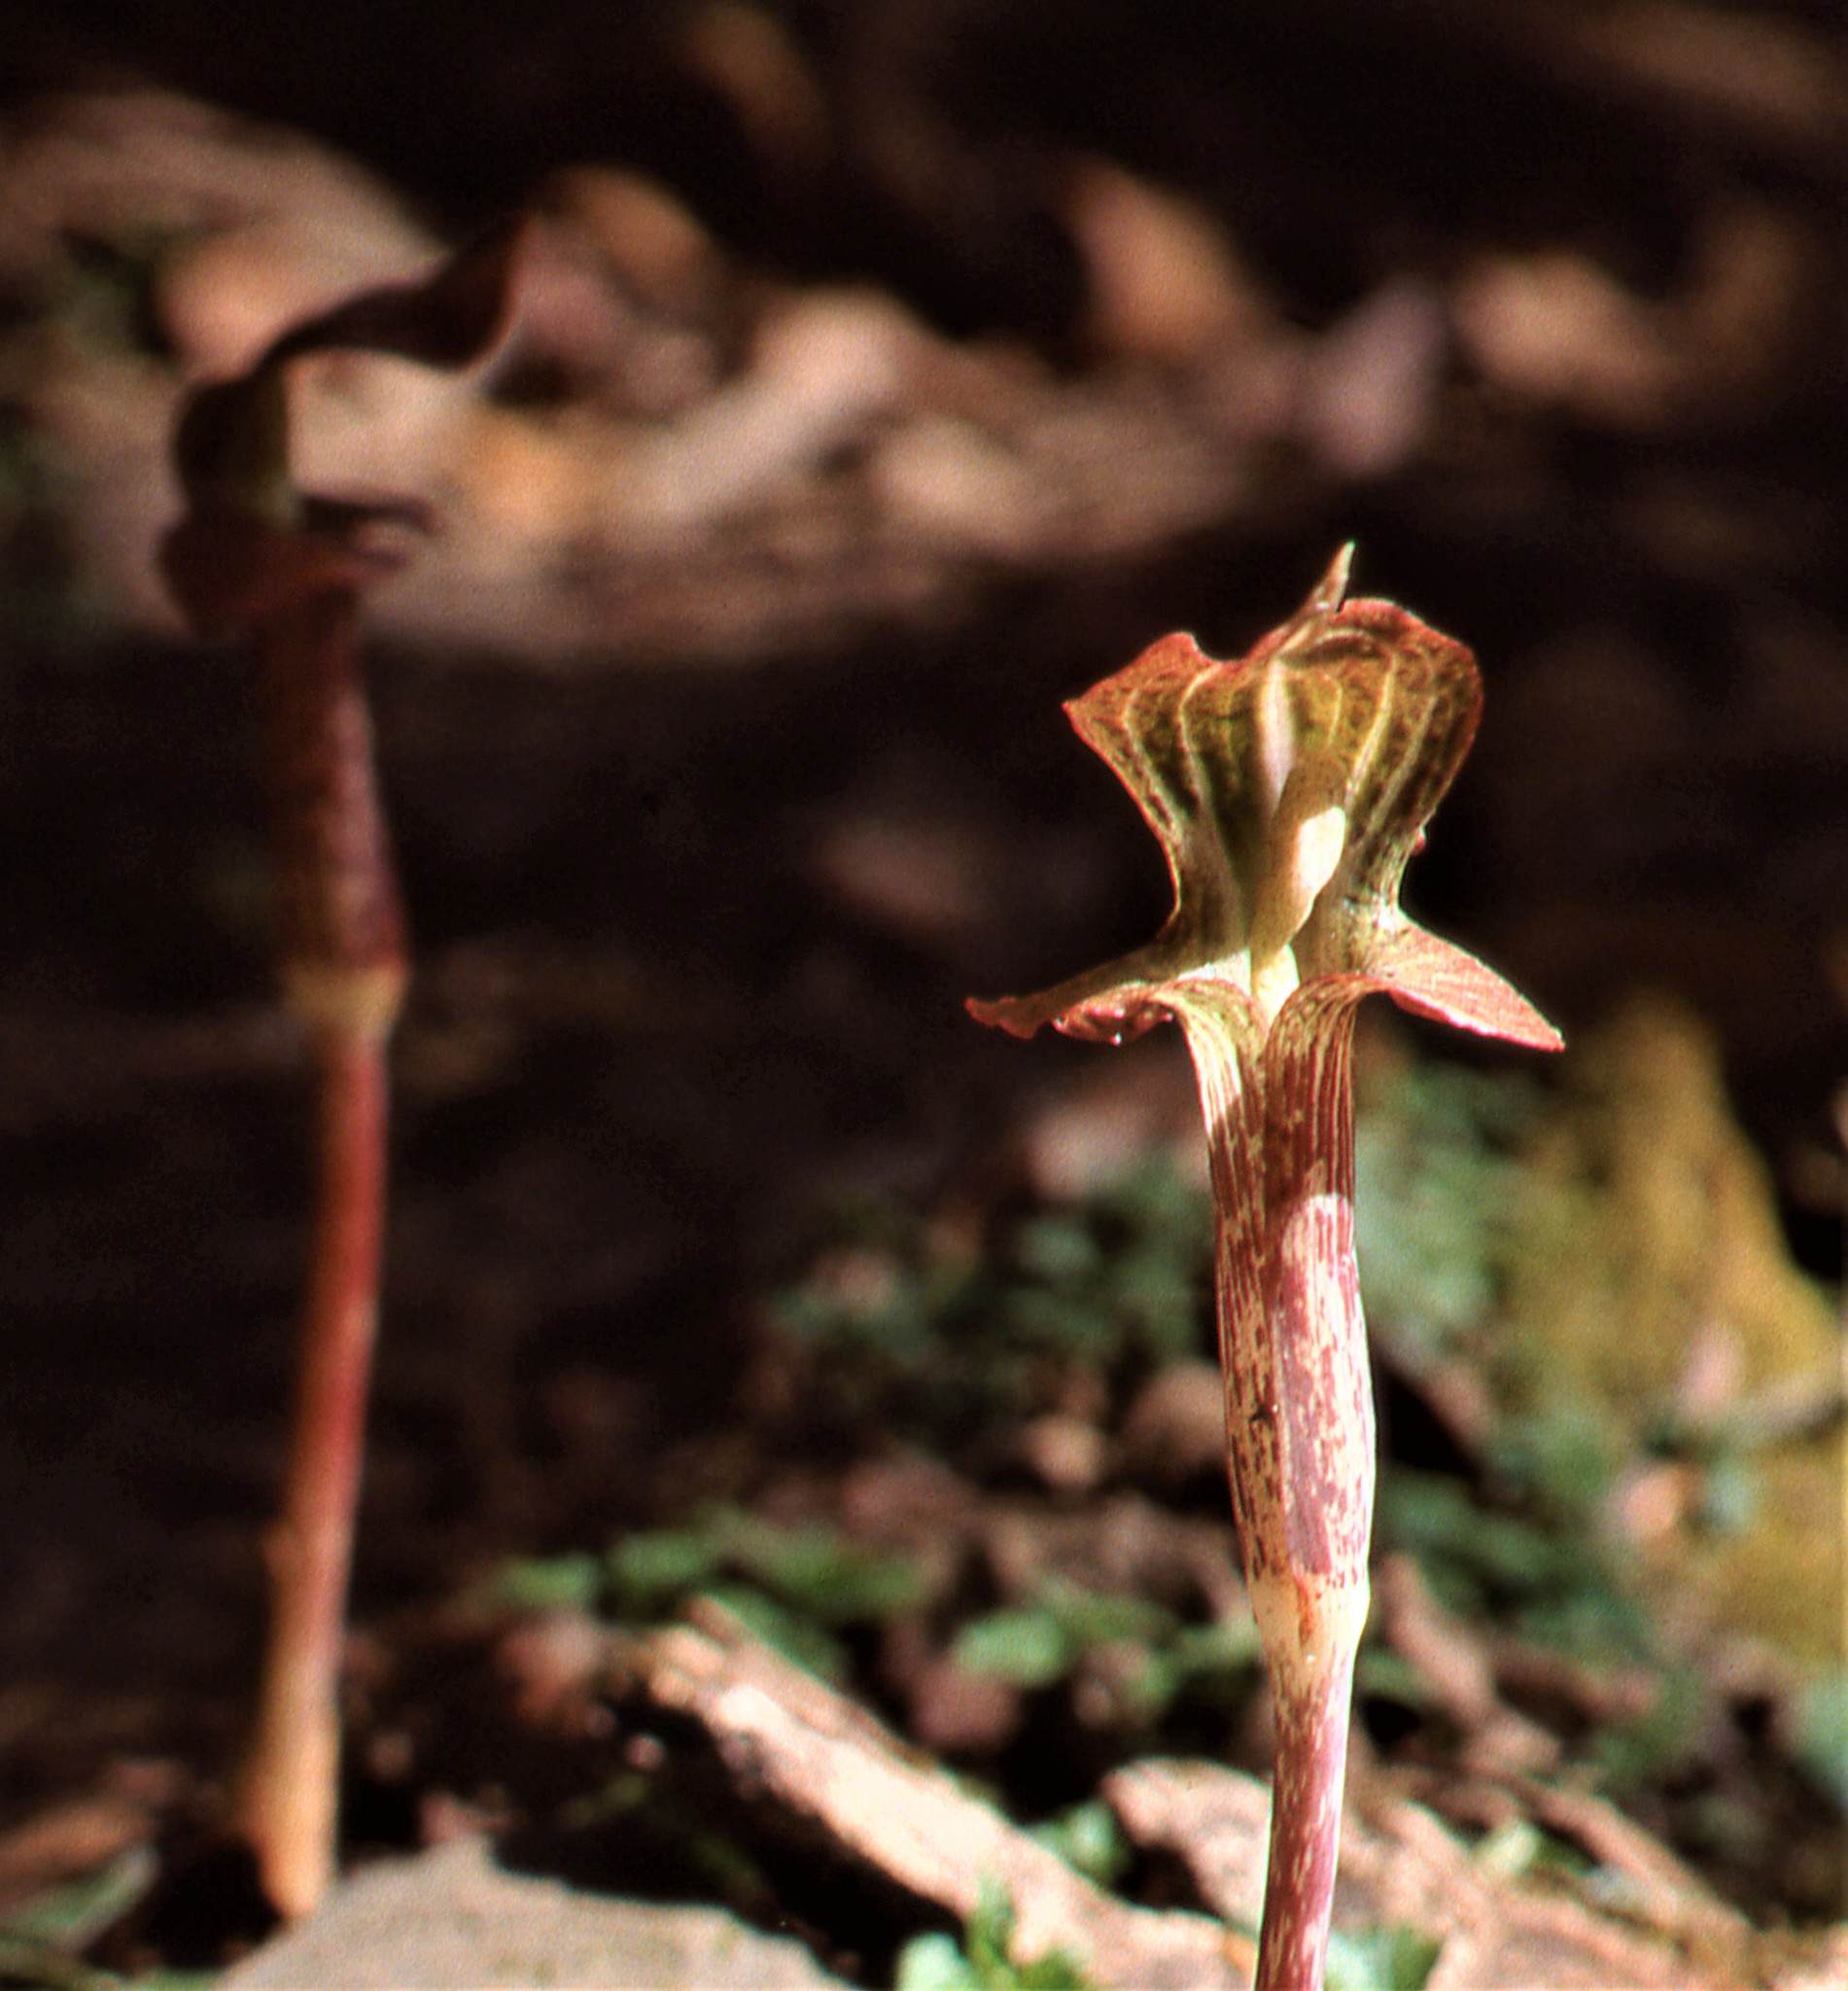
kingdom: Plantae
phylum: Tracheophyta
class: Liliopsida
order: Alismatales
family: Araceae
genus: Arisaema
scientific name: Arisaema nepenthoides
